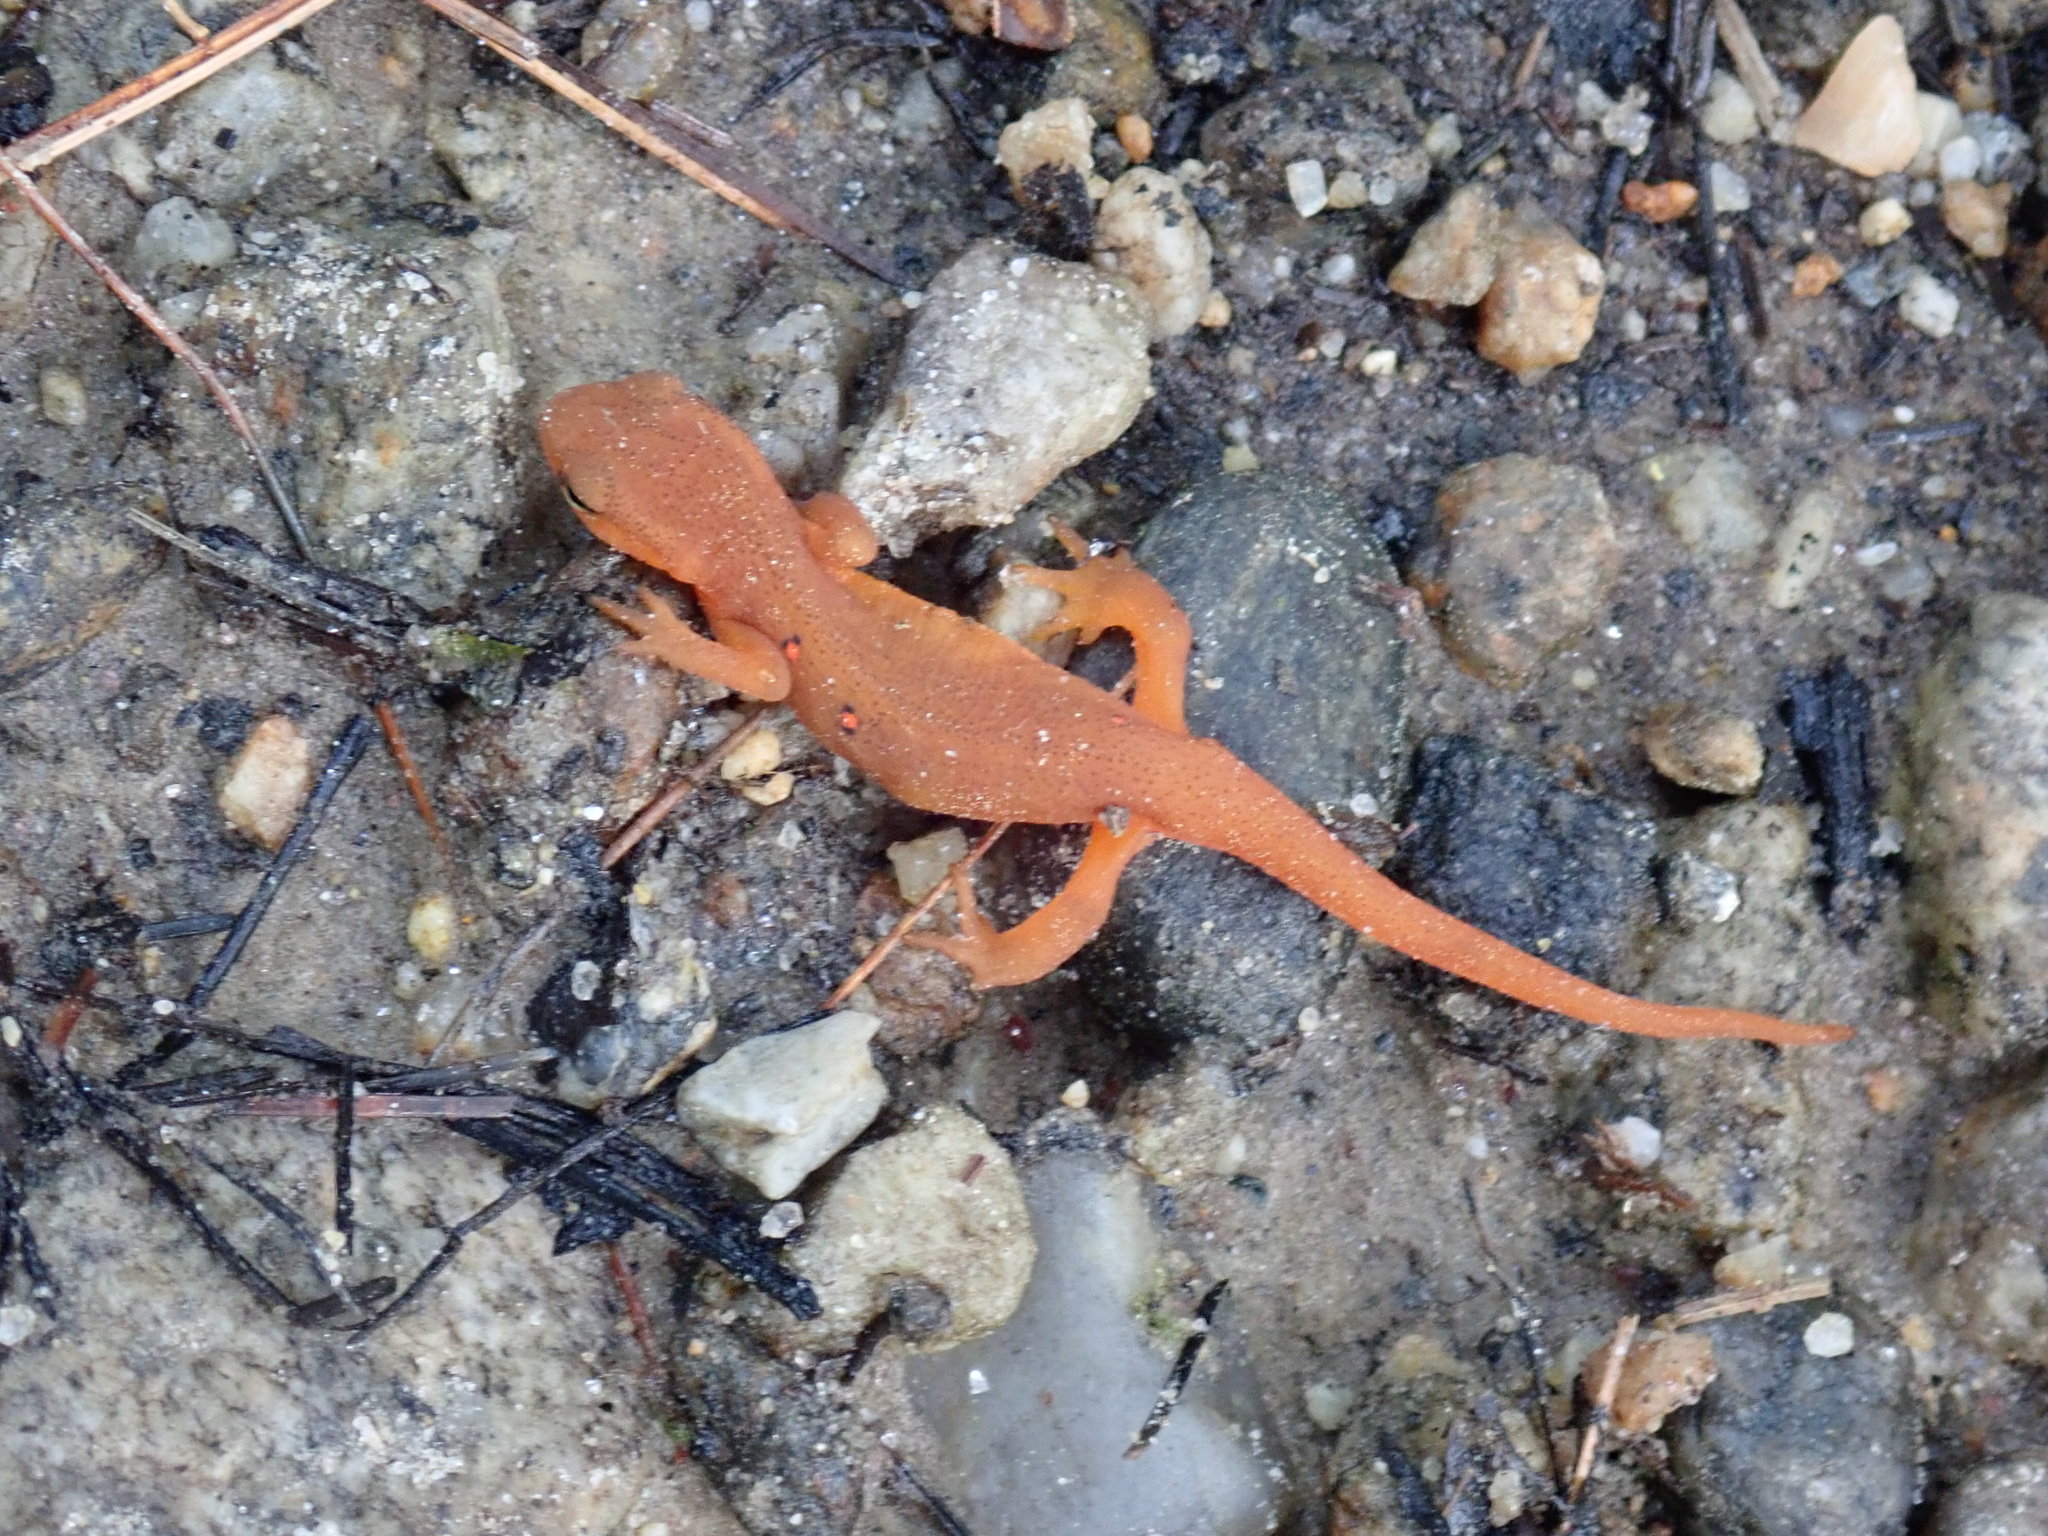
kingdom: Animalia
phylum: Chordata
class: Amphibia
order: Caudata
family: Salamandridae
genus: Notophthalmus
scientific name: Notophthalmus viridescens
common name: Eastern newt
